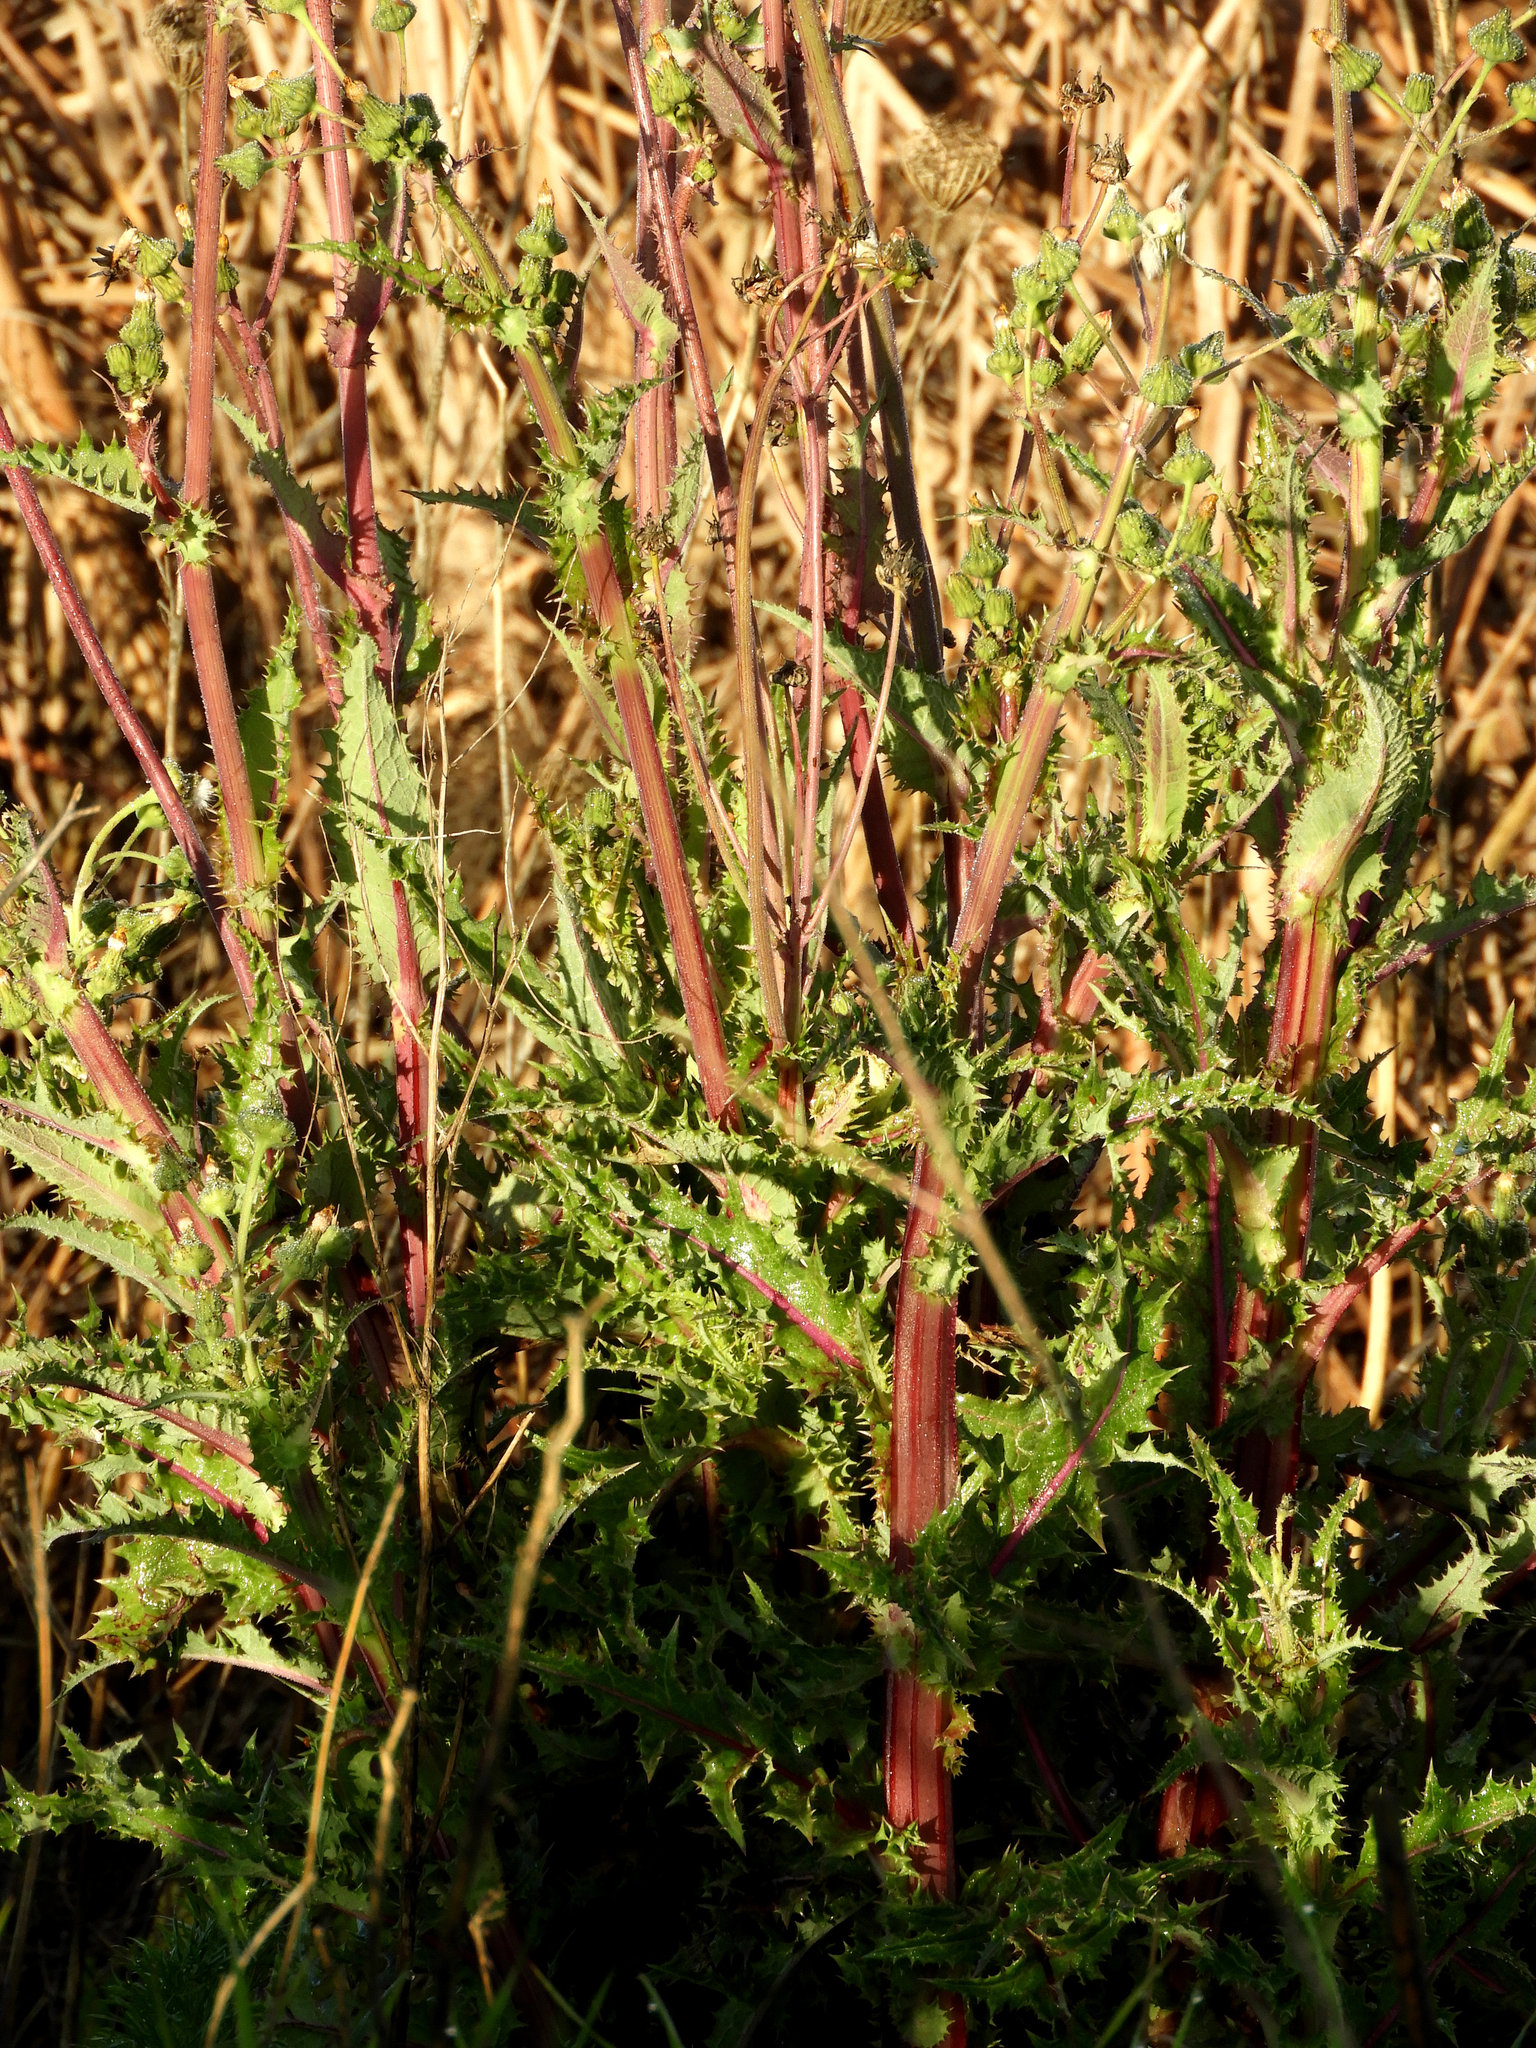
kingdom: Plantae
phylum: Tracheophyta
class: Magnoliopsida
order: Asterales
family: Asteraceae
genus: Sonchus
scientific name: Sonchus asper
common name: Prickly sow-thistle
